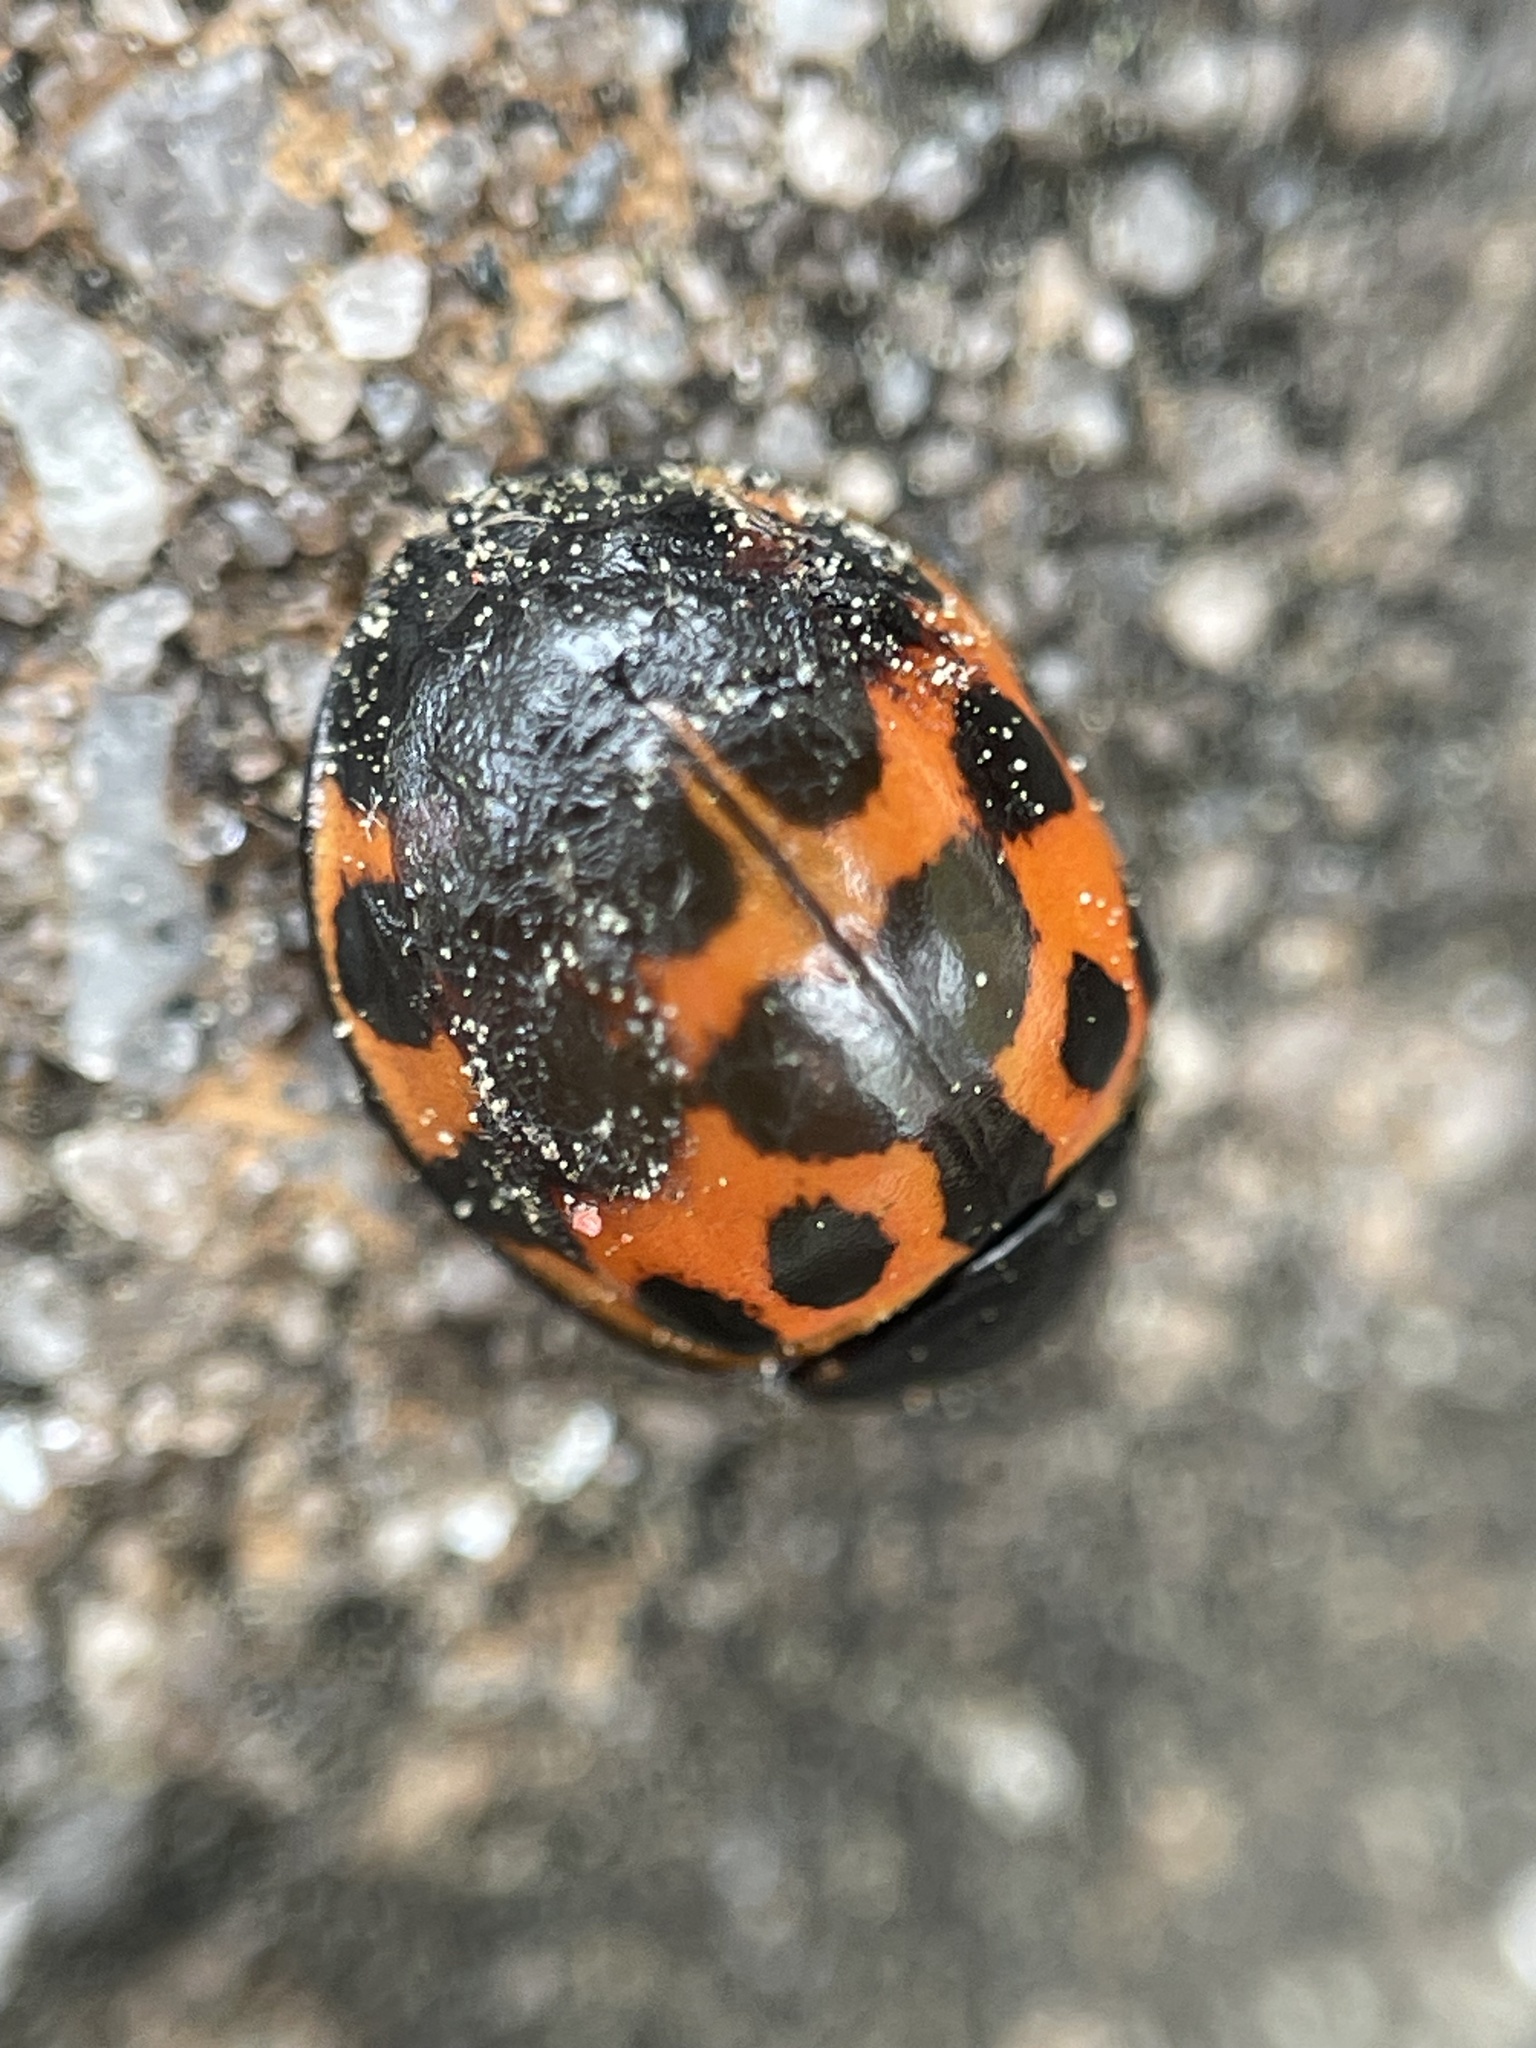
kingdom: Animalia
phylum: Arthropoda
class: Insecta
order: Coleoptera
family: Coccinellidae
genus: Harmonia
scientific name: Harmonia axyridis
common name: Harlequin ladybird
